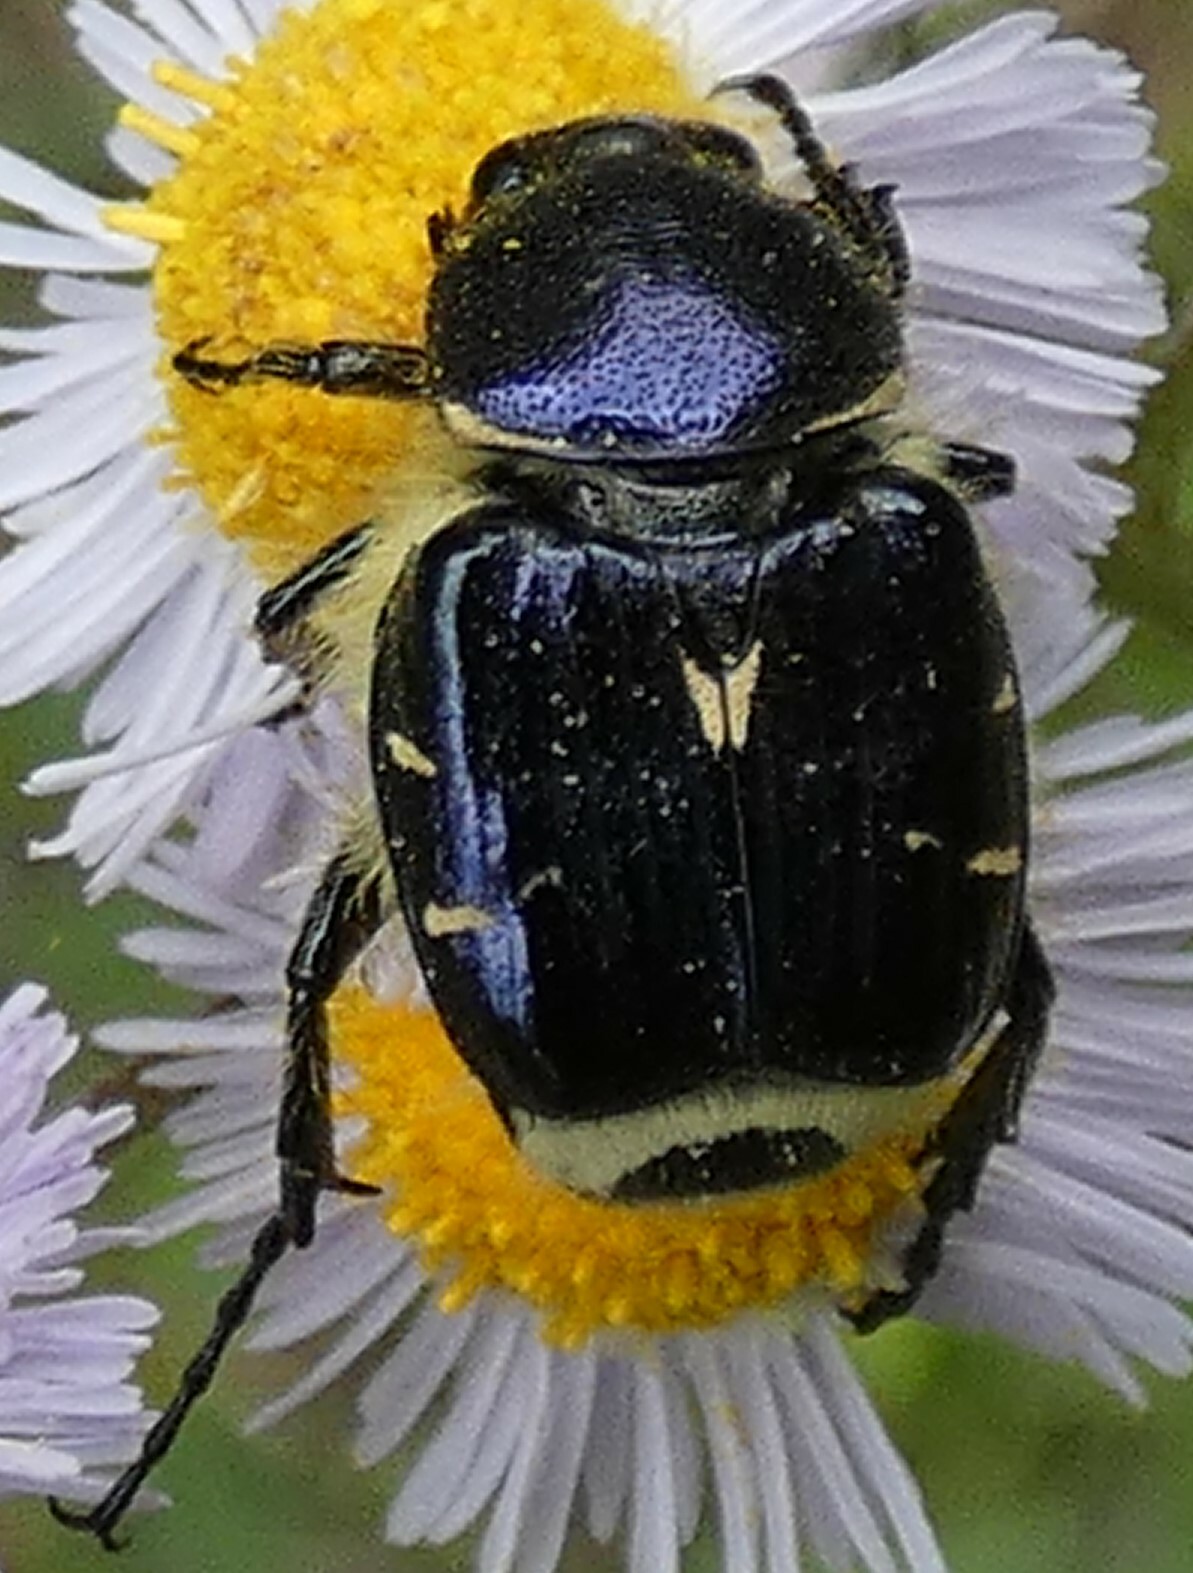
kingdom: Animalia
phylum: Arthropoda
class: Insecta
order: Coleoptera
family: Scarabaeidae
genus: Trichiotinus
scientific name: Trichiotinus lunulatus
